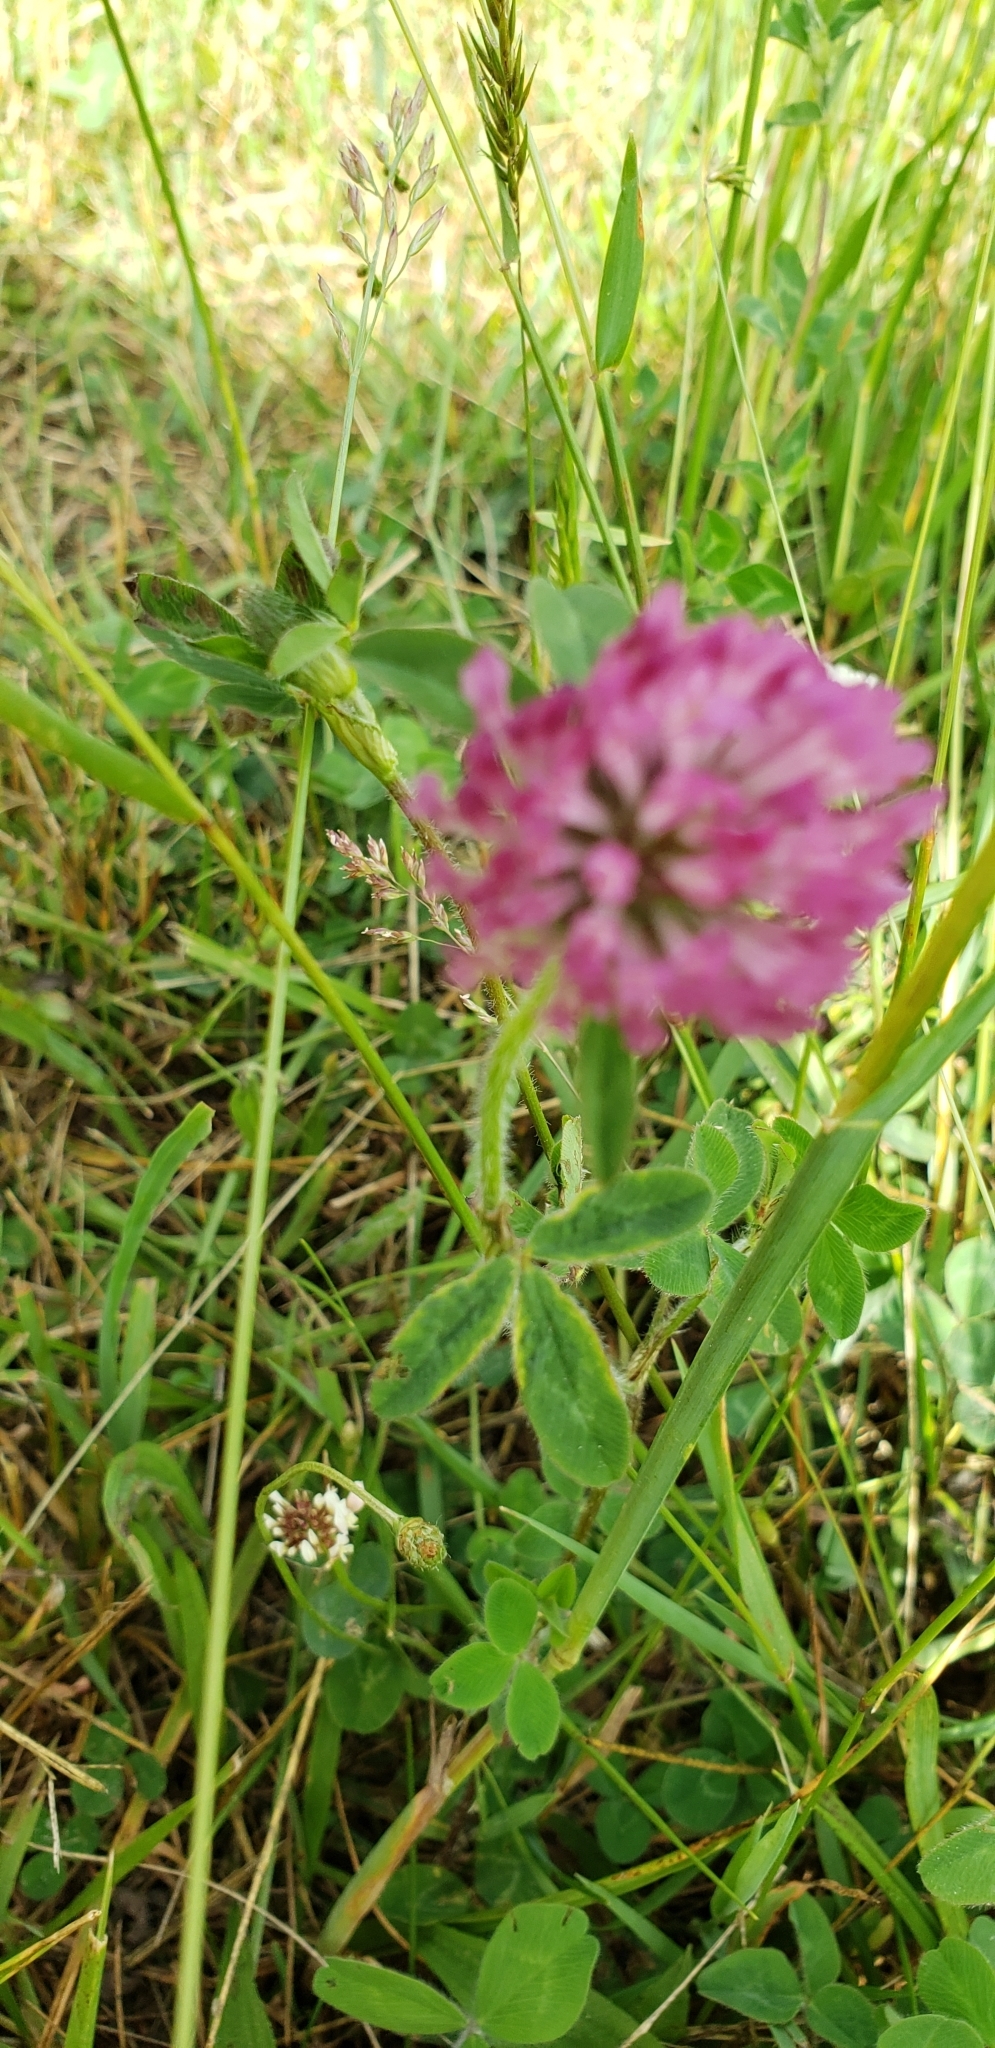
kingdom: Plantae
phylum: Tracheophyta
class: Magnoliopsida
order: Fabales
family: Fabaceae
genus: Trifolium
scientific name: Trifolium pratense
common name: Red clover
